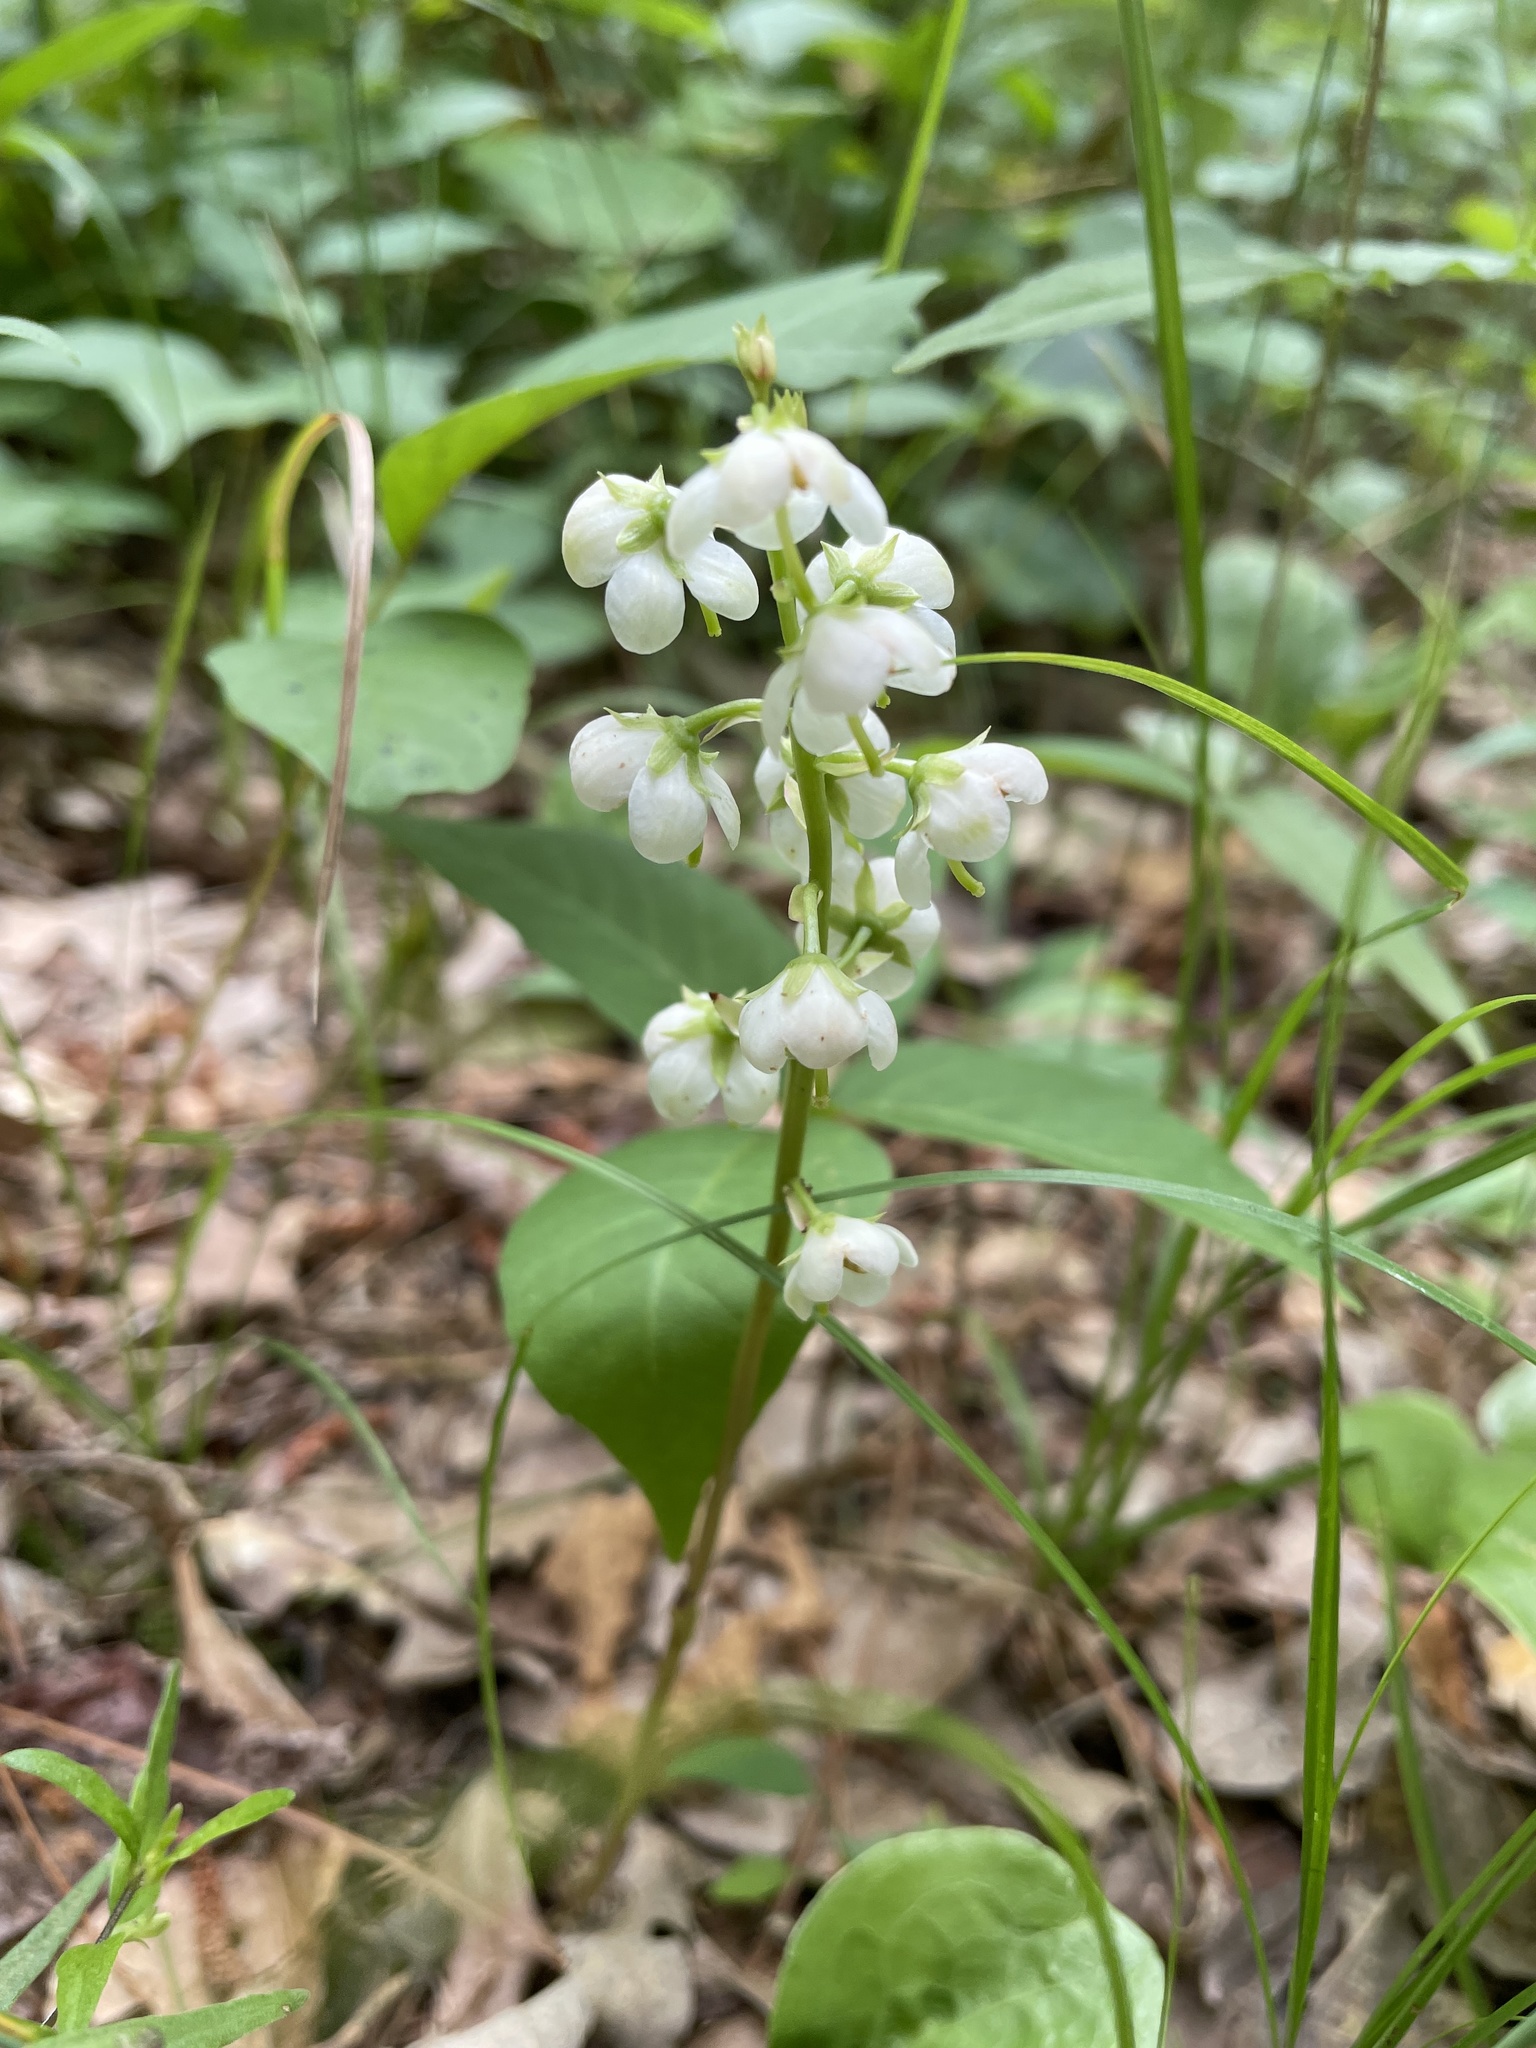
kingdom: Plantae
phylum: Tracheophyta
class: Magnoliopsida
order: Ericales
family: Ericaceae
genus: Pyrola
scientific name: Pyrola americana
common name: American wintergreen
